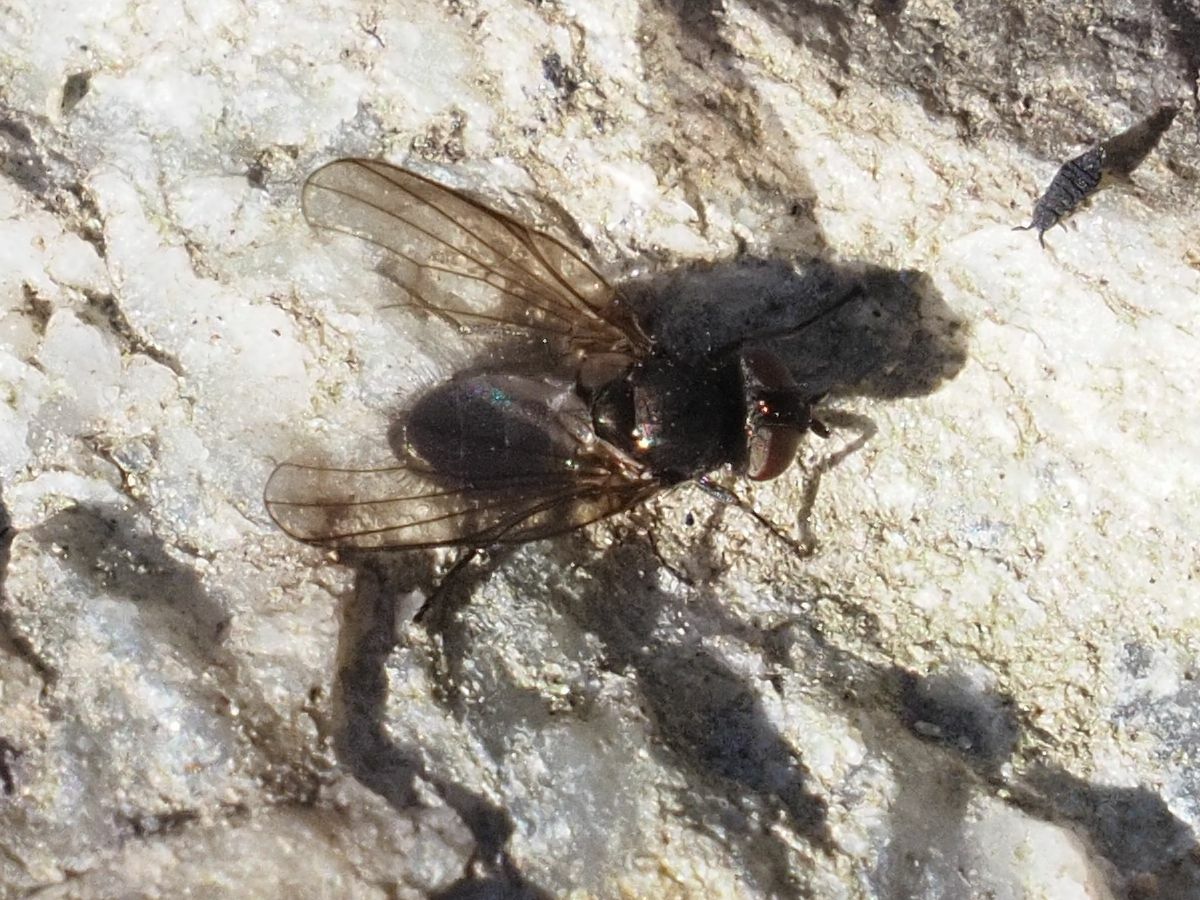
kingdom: Animalia
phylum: Arthropoda
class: Insecta
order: Diptera
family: Lonchaeidae
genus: Earomyia
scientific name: Earomyia lonchaeoides
